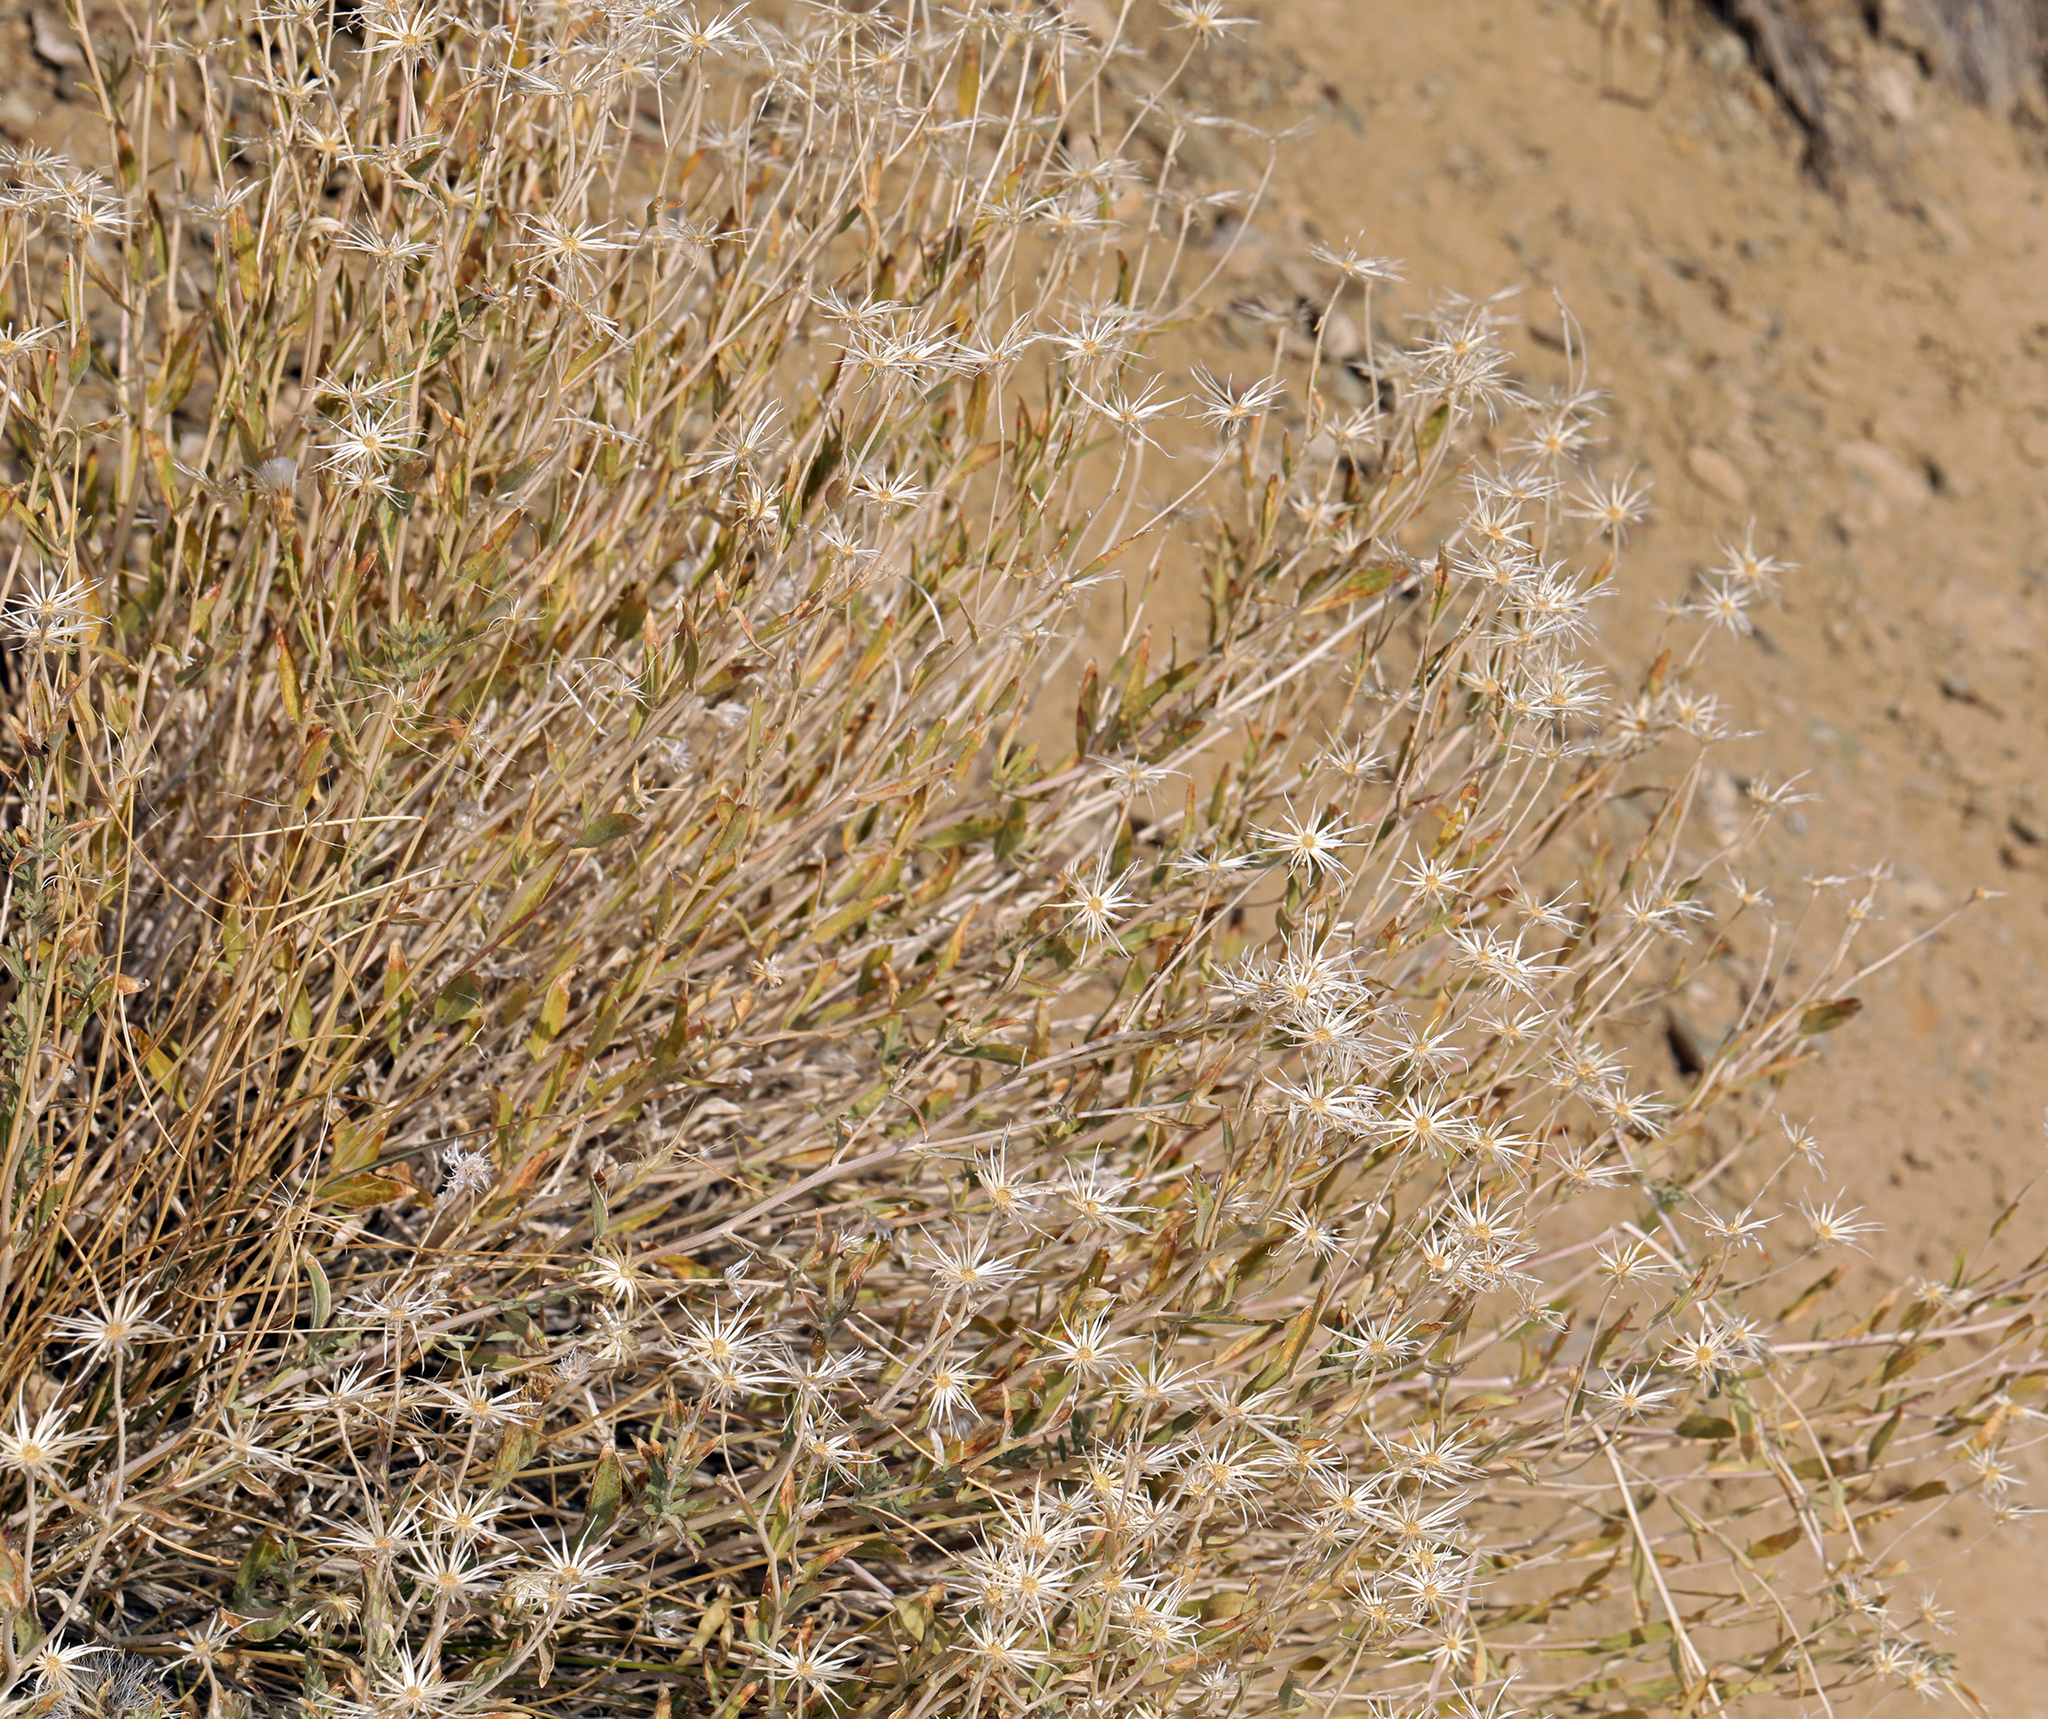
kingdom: Plantae
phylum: Tracheophyta
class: Magnoliopsida
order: Asterales
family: Asteraceae
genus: Brickellia
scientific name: Brickellia oblongifolia
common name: Mojave brickellbush
